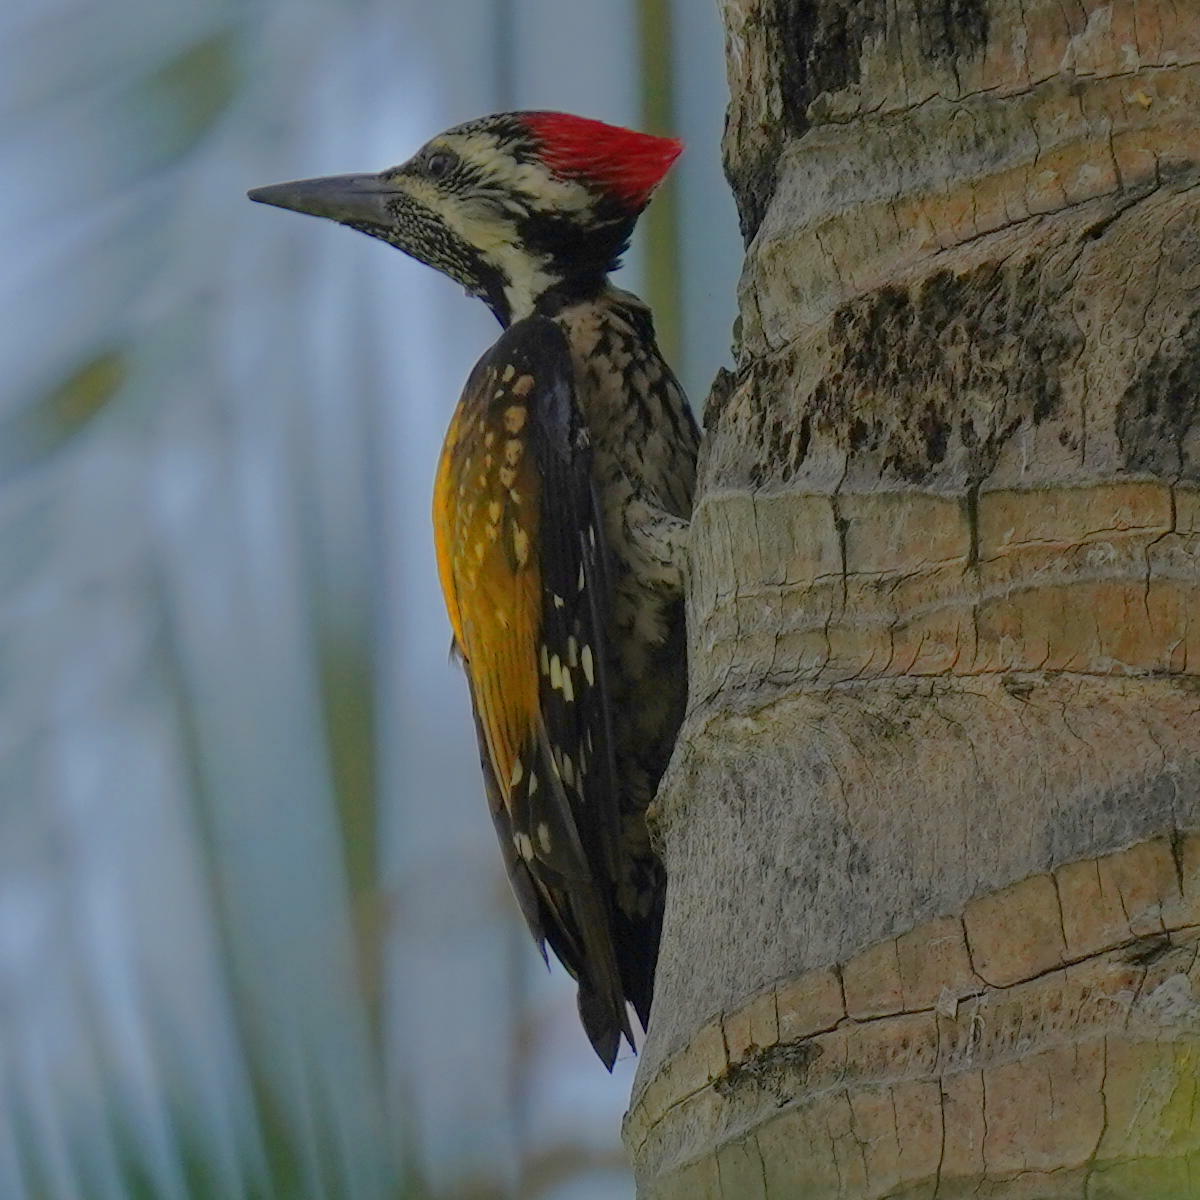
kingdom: Animalia
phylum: Chordata
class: Aves
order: Piciformes
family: Picidae
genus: Dinopium
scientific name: Dinopium benghalense
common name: Black-rumped flameback
